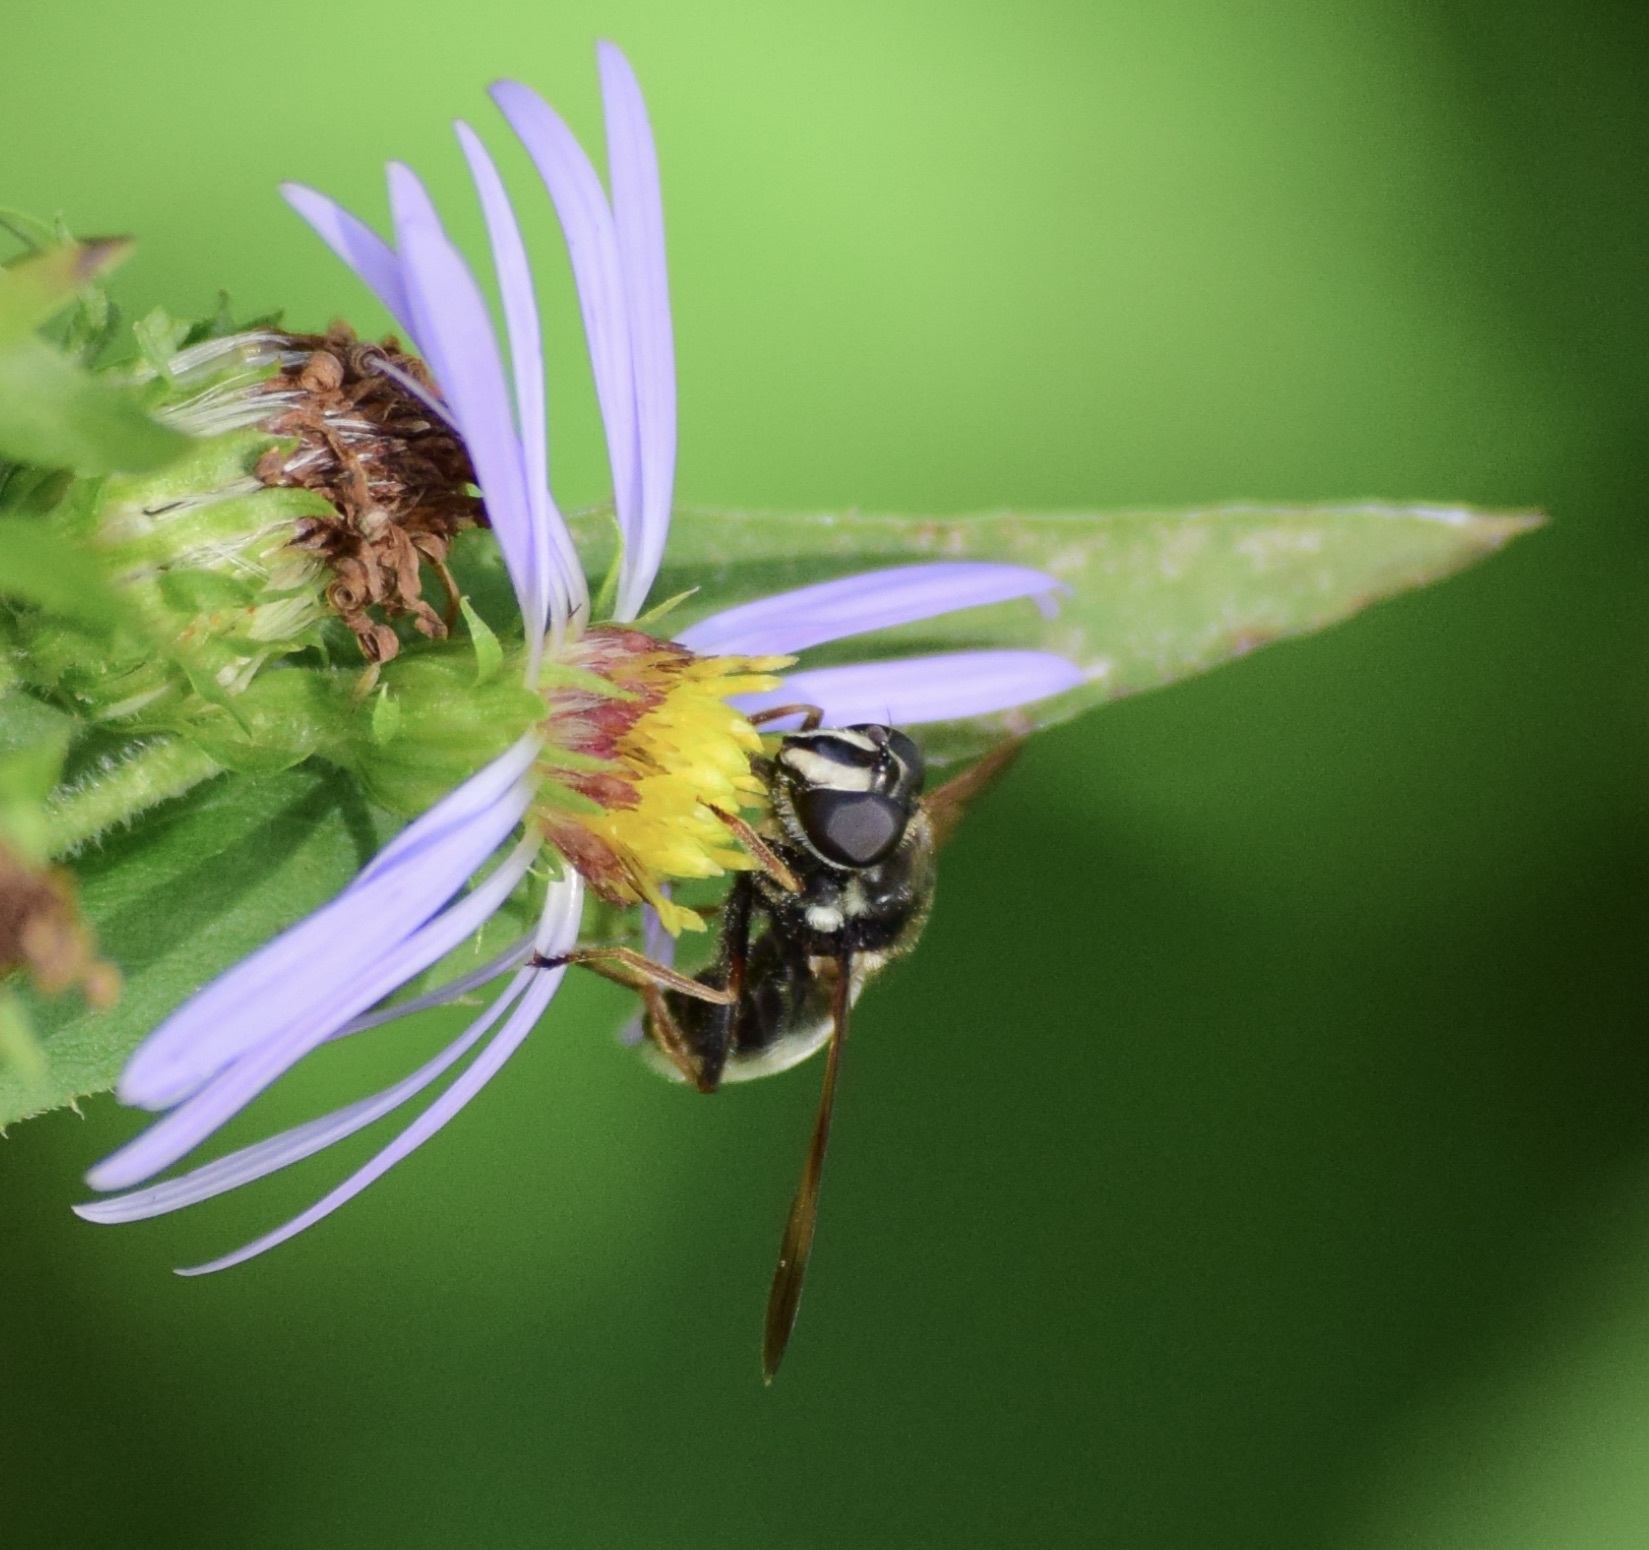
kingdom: Animalia
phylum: Arthropoda
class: Insecta
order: Diptera
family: Syrphidae
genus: Sericomyia
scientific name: Sericomyia militaris
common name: Narrow-banded pond fly
